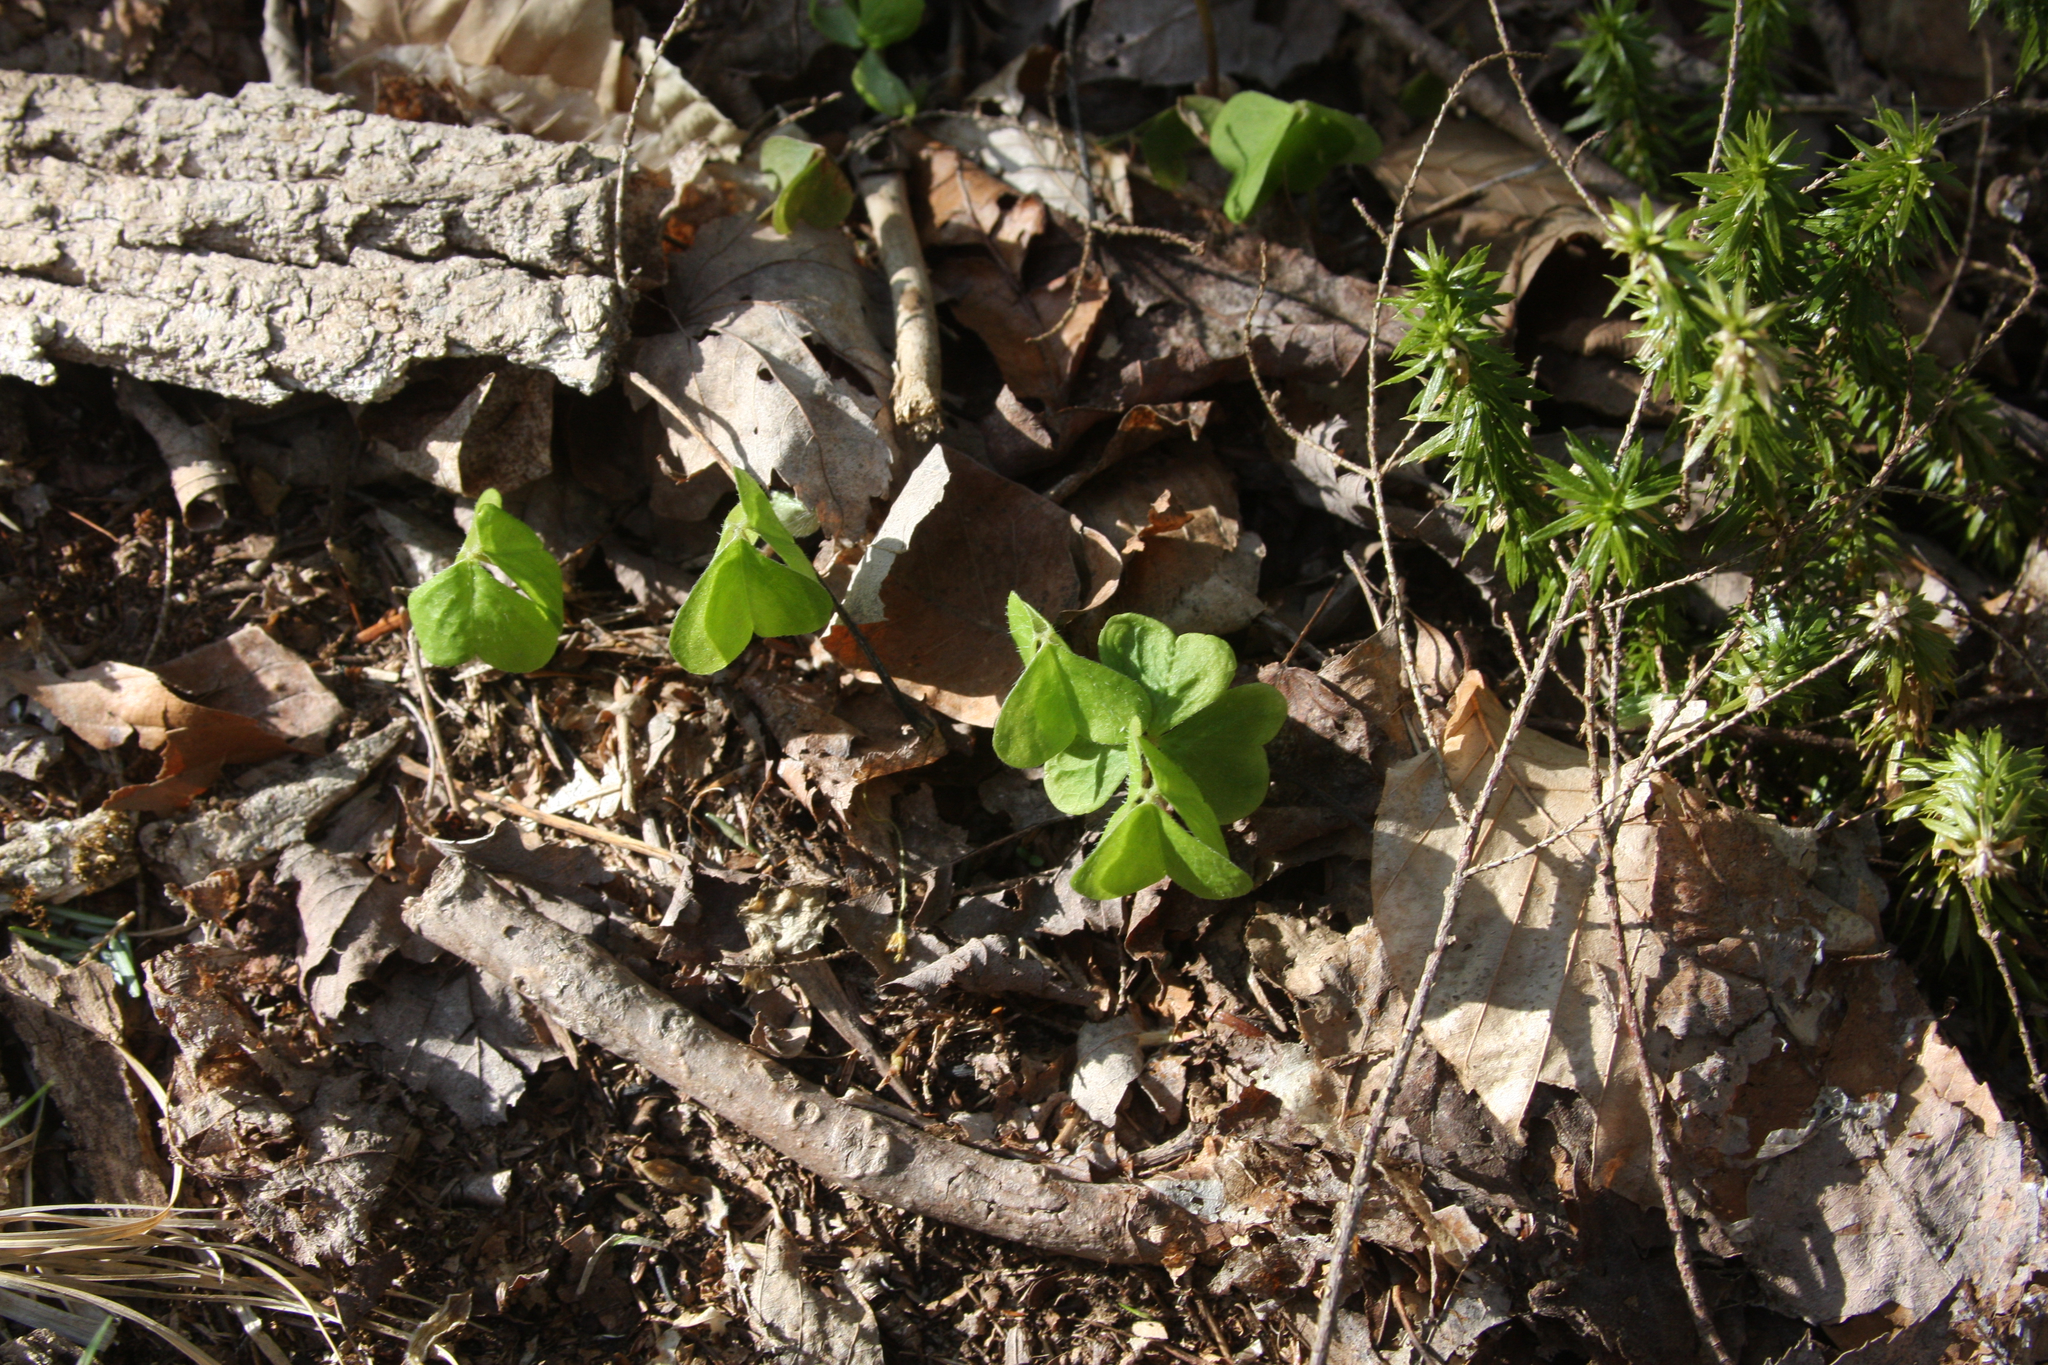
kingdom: Plantae
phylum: Tracheophyta
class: Lycopodiopsida
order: Lycopodiales
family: Lycopodiaceae
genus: Huperzia
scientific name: Huperzia lucidula
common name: Shining clubmoss
